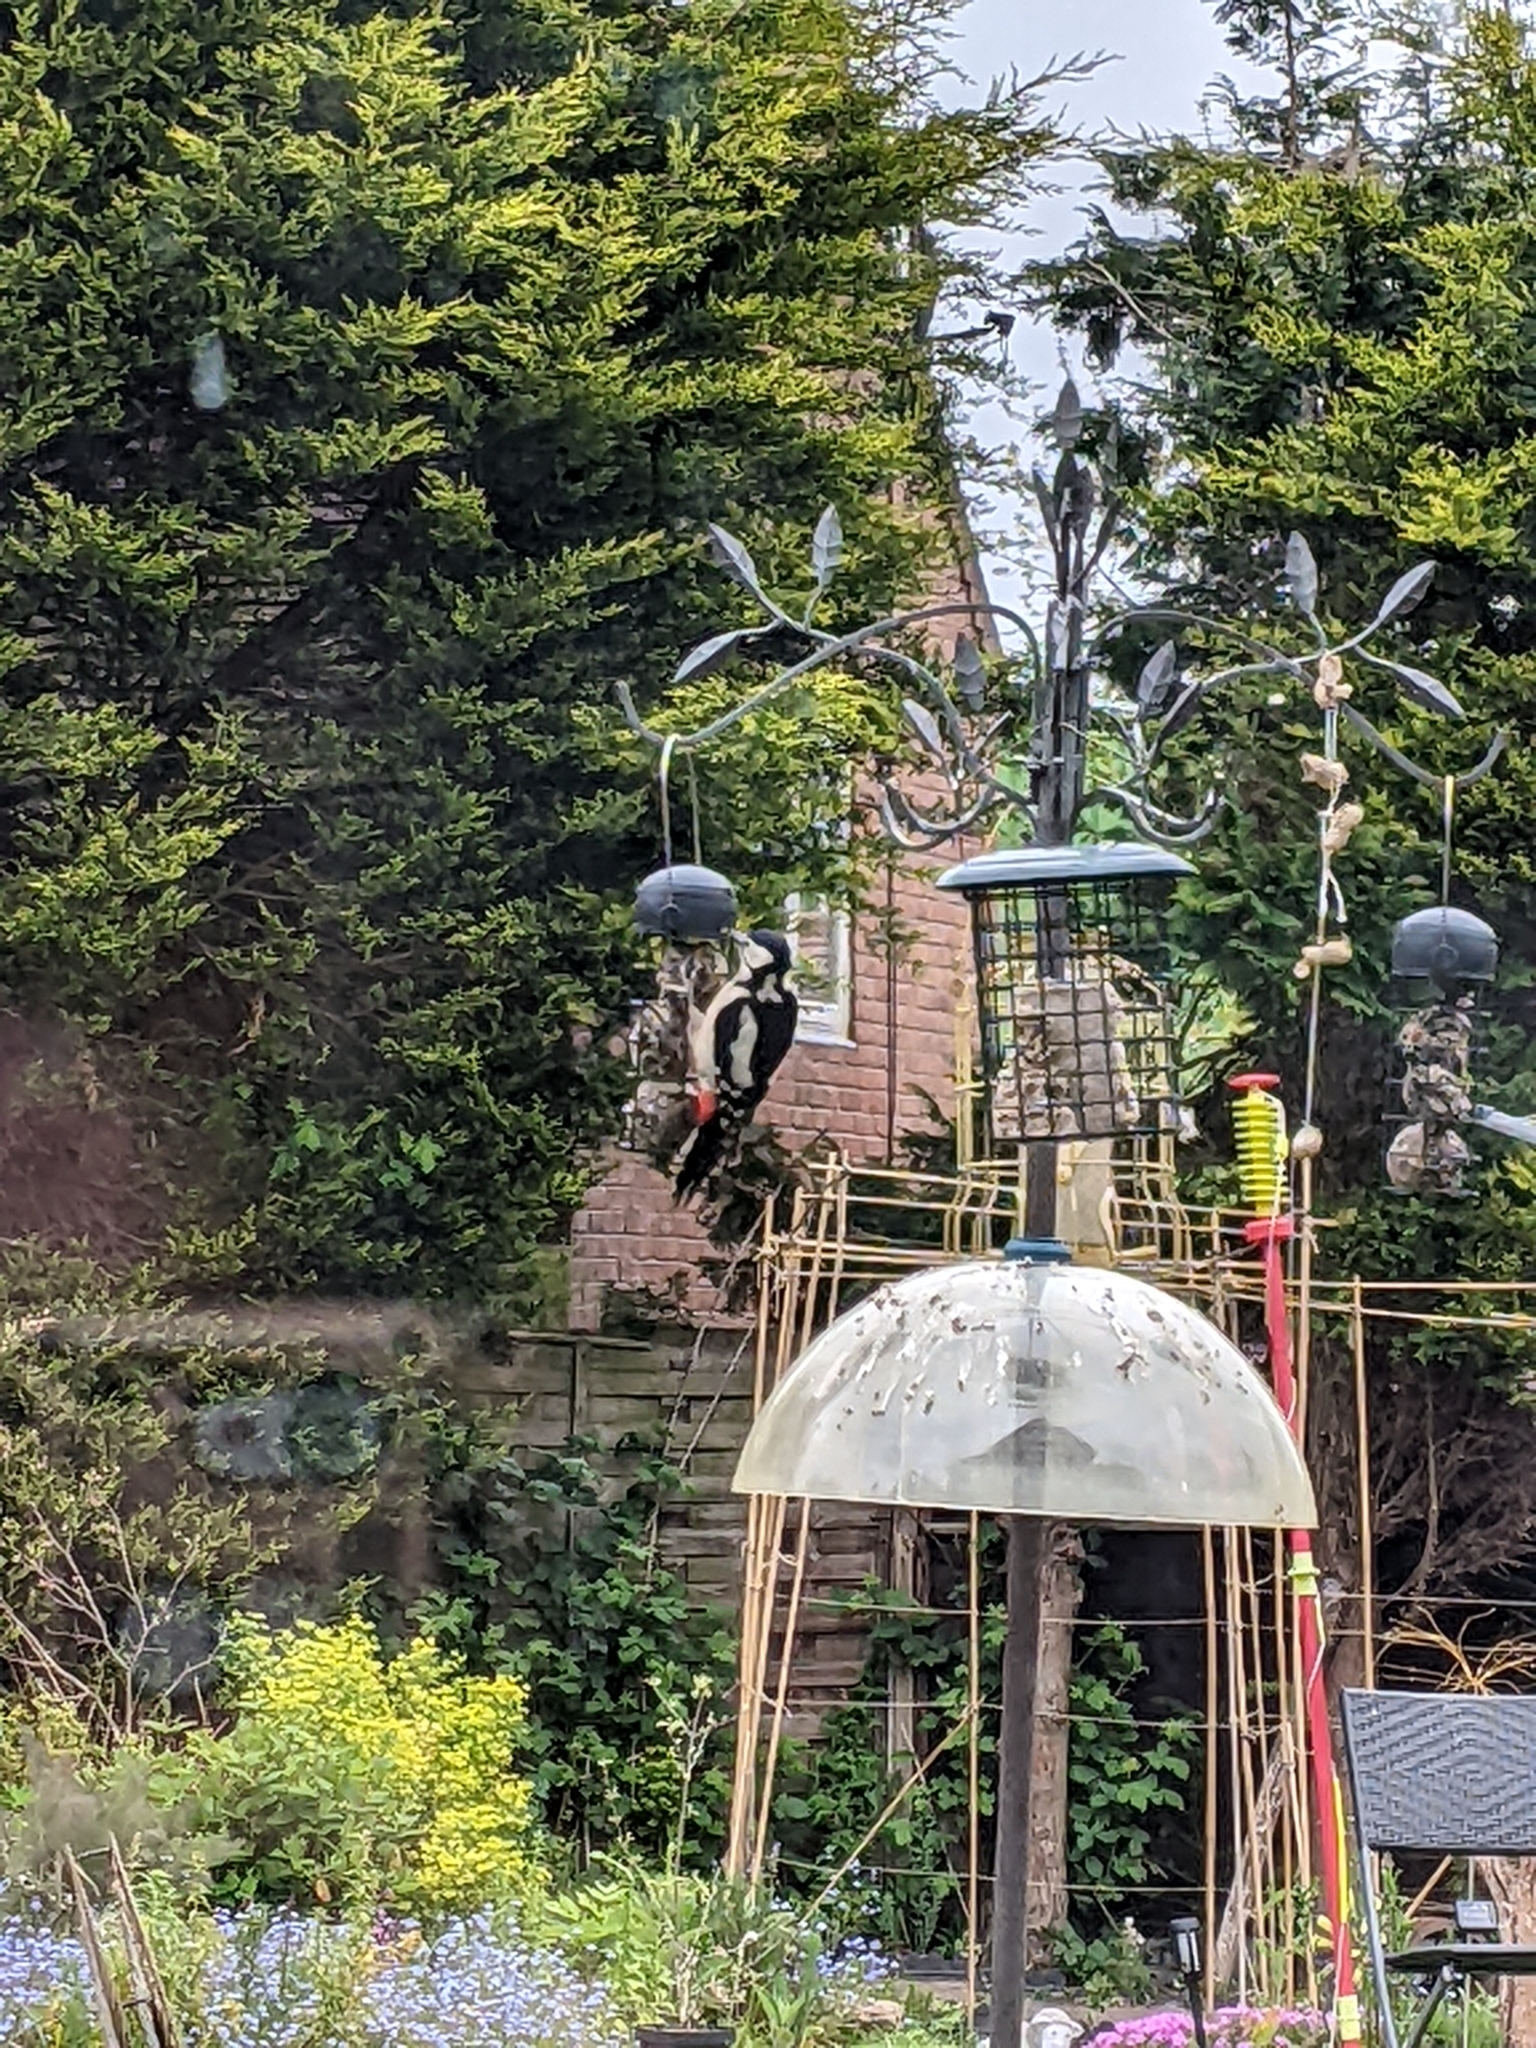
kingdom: Animalia
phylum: Chordata
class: Aves
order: Piciformes
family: Picidae
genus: Dendrocopos
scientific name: Dendrocopos major
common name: Great spotted woodpecker
